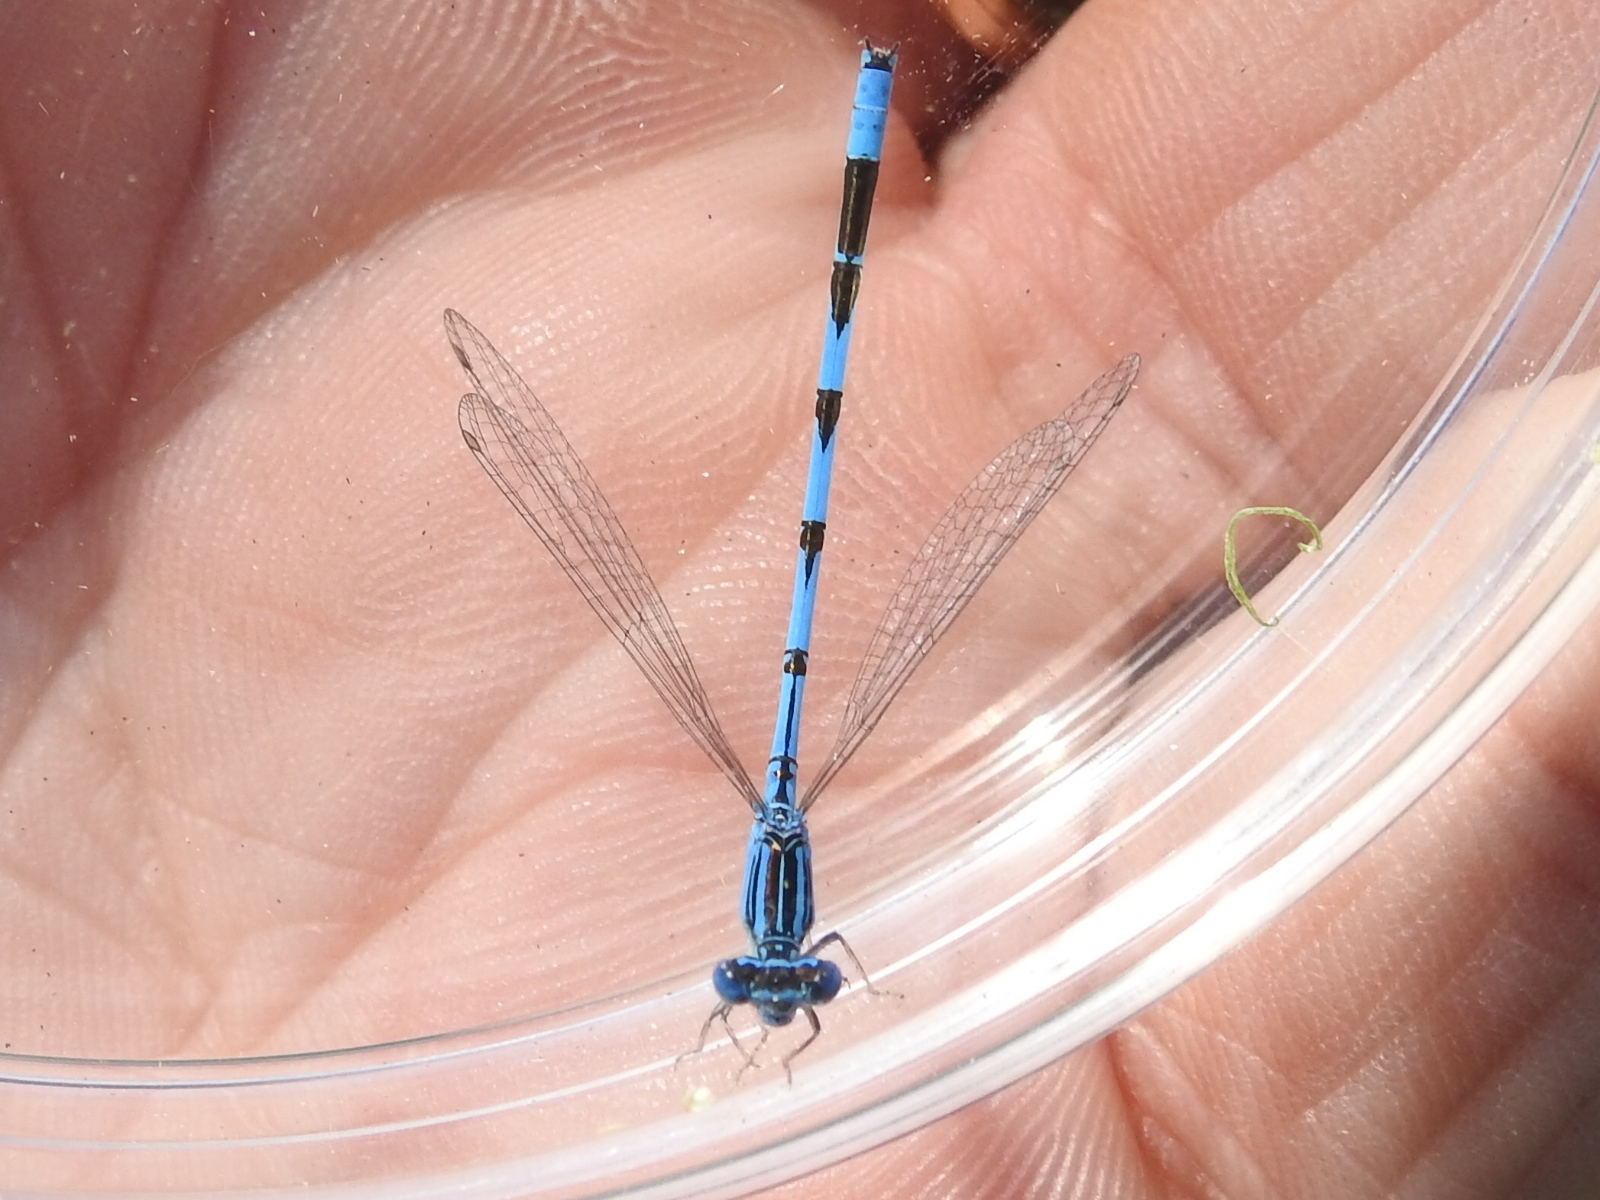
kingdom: Animalia
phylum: Arthropoda
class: Insecta
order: Odonata
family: Coenagrionidae
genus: Enallagma
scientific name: Enallagma basidens
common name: Double-striped bluet
